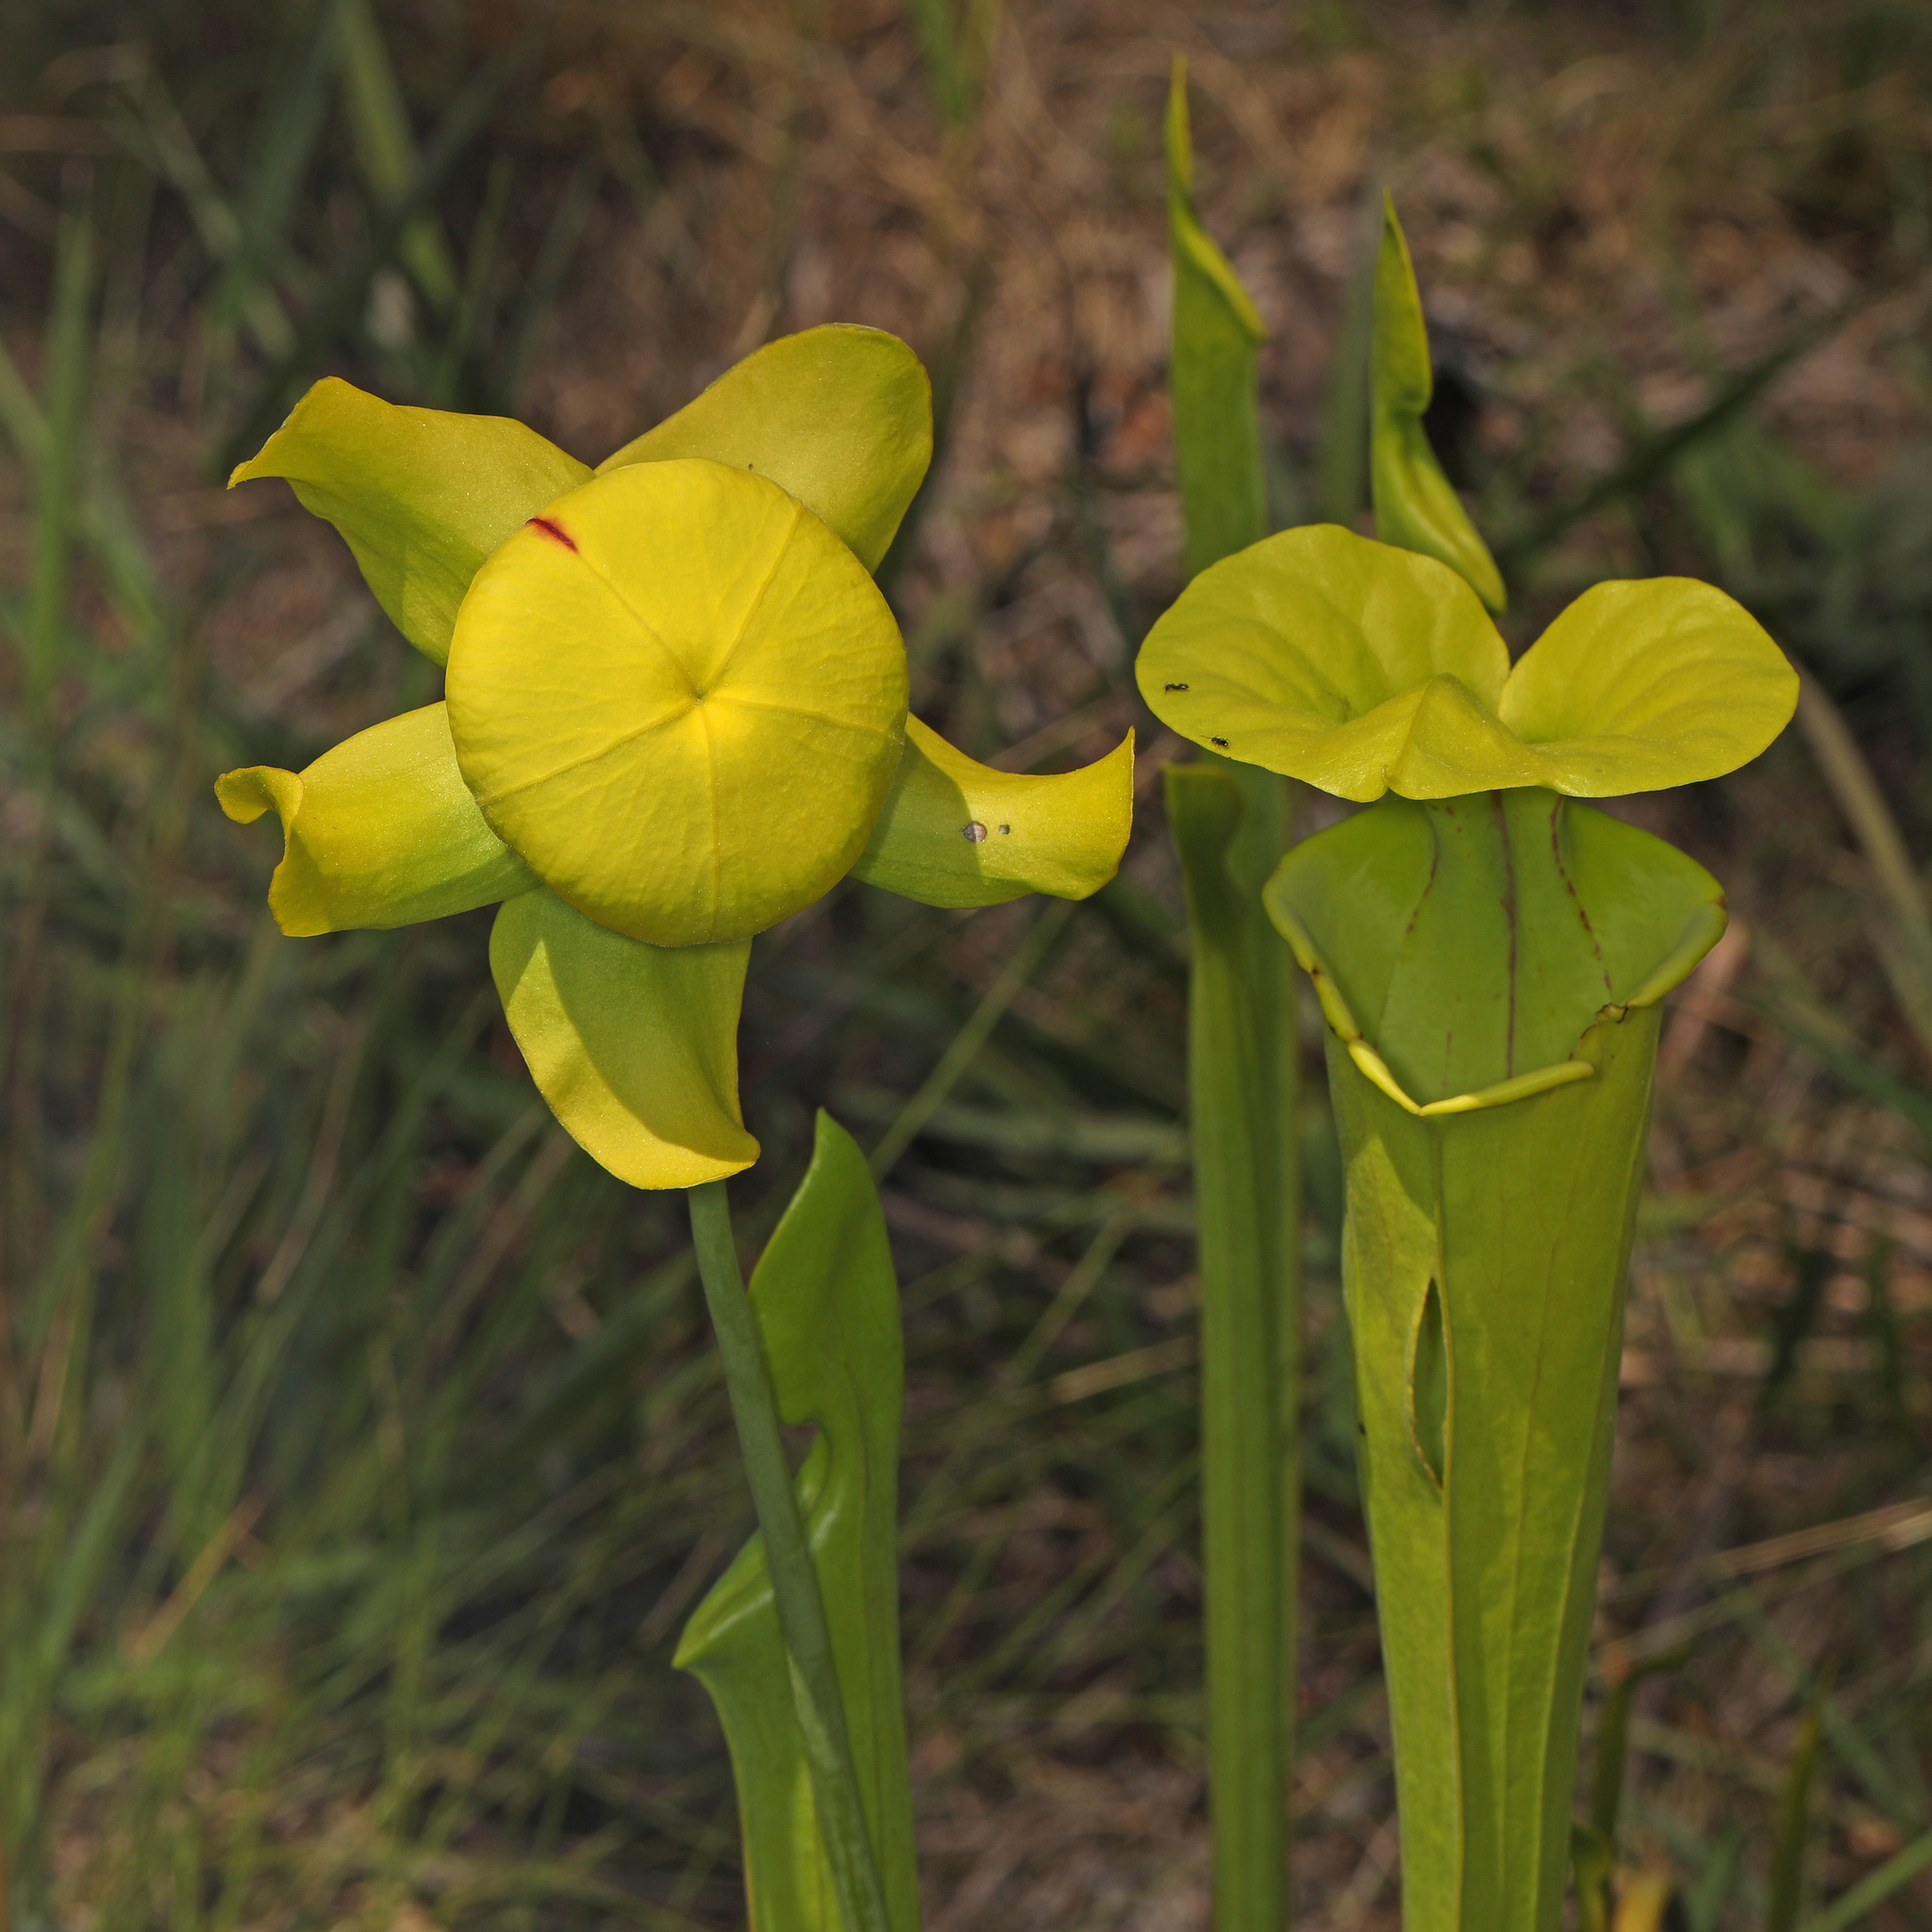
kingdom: Plantae
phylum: Tracheophyta
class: Magnoliopsida
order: Ericales
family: Sarraceniaceae
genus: Sarracenia
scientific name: Sarracenia flava
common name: Trumpets
